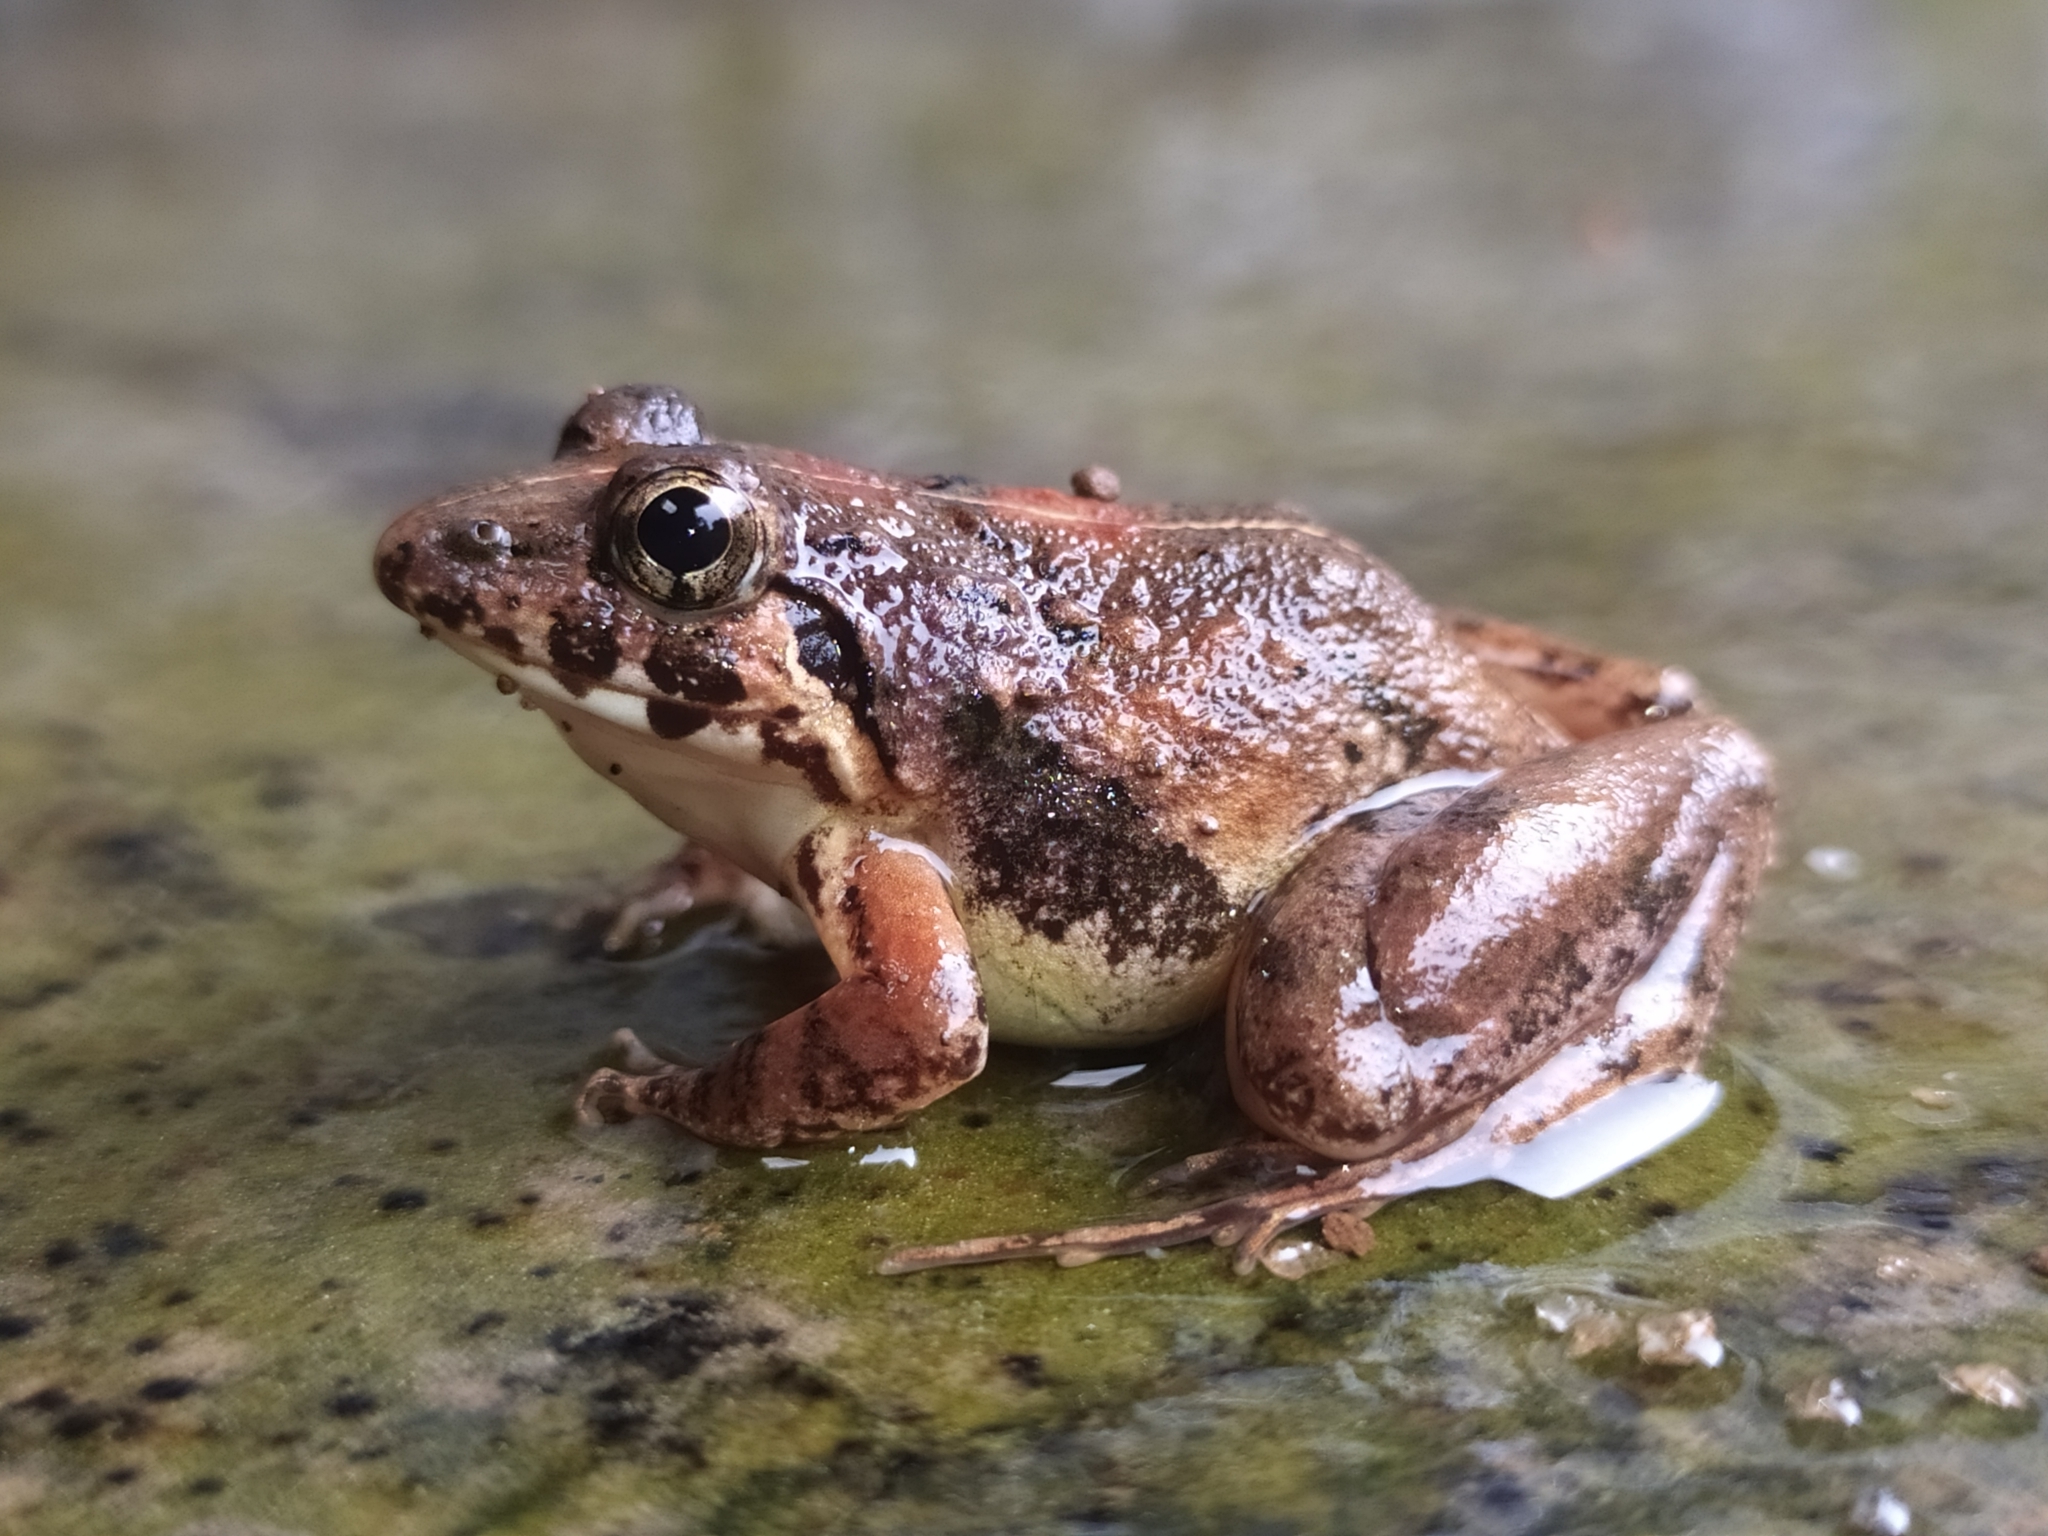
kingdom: Animalia
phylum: Chordata
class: Amphibia
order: Anura
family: Dicroglossidae
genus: Minervarya
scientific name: Minervarya nilagirica
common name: Nilgiri cricket frog
